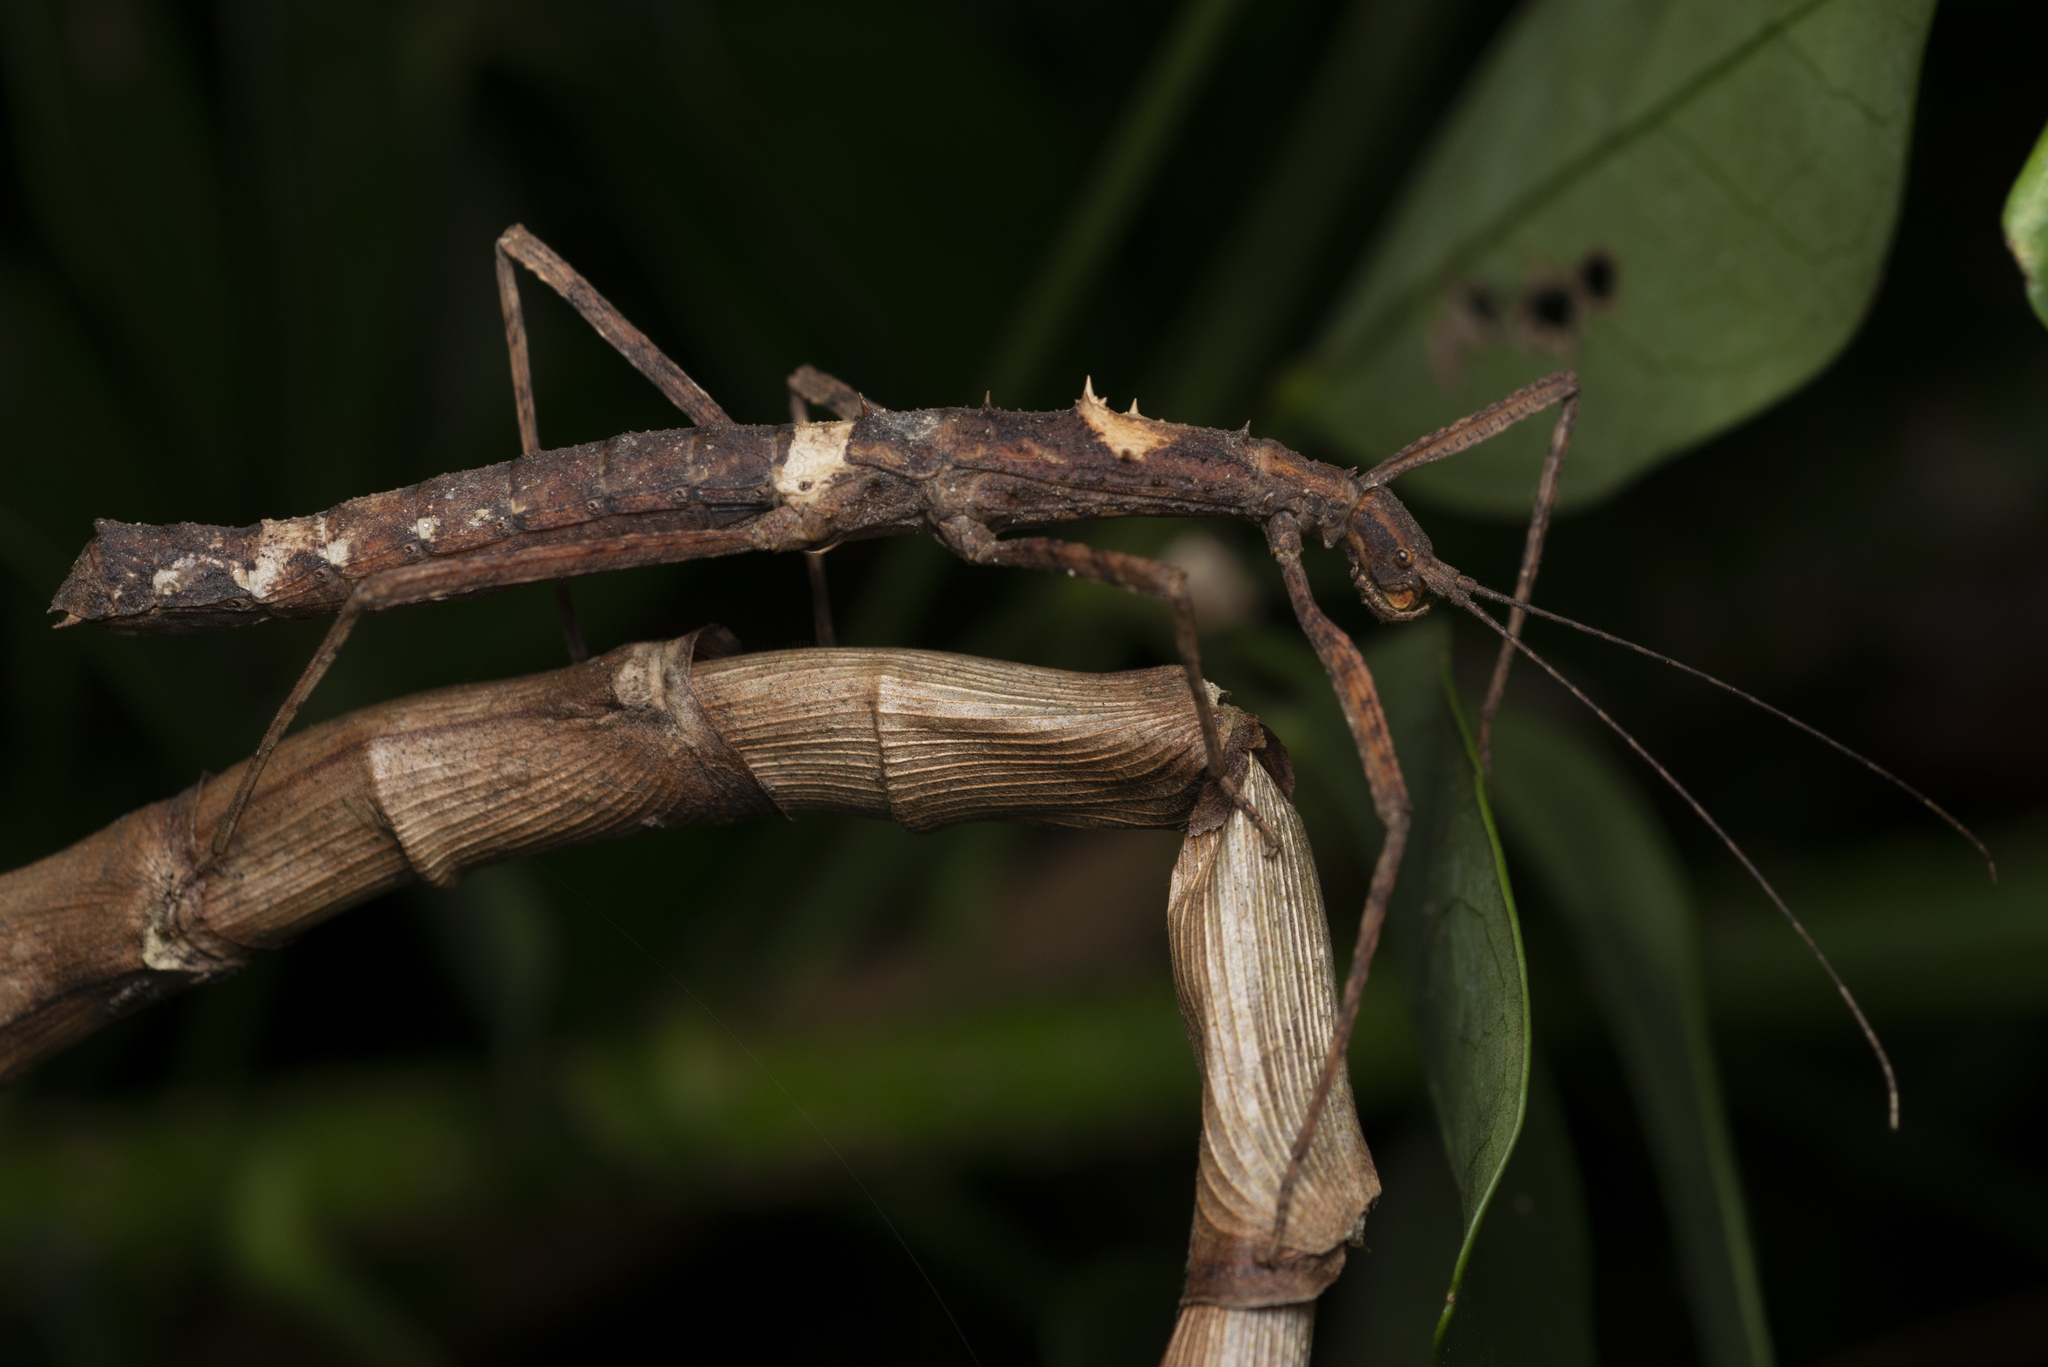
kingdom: Animalia
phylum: Arthropoda
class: Insecta
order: Phasmida
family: Lonchodidae
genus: Neohirasea
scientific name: Neohirasea hongkongensis
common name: Hong kong spiny stick insect
